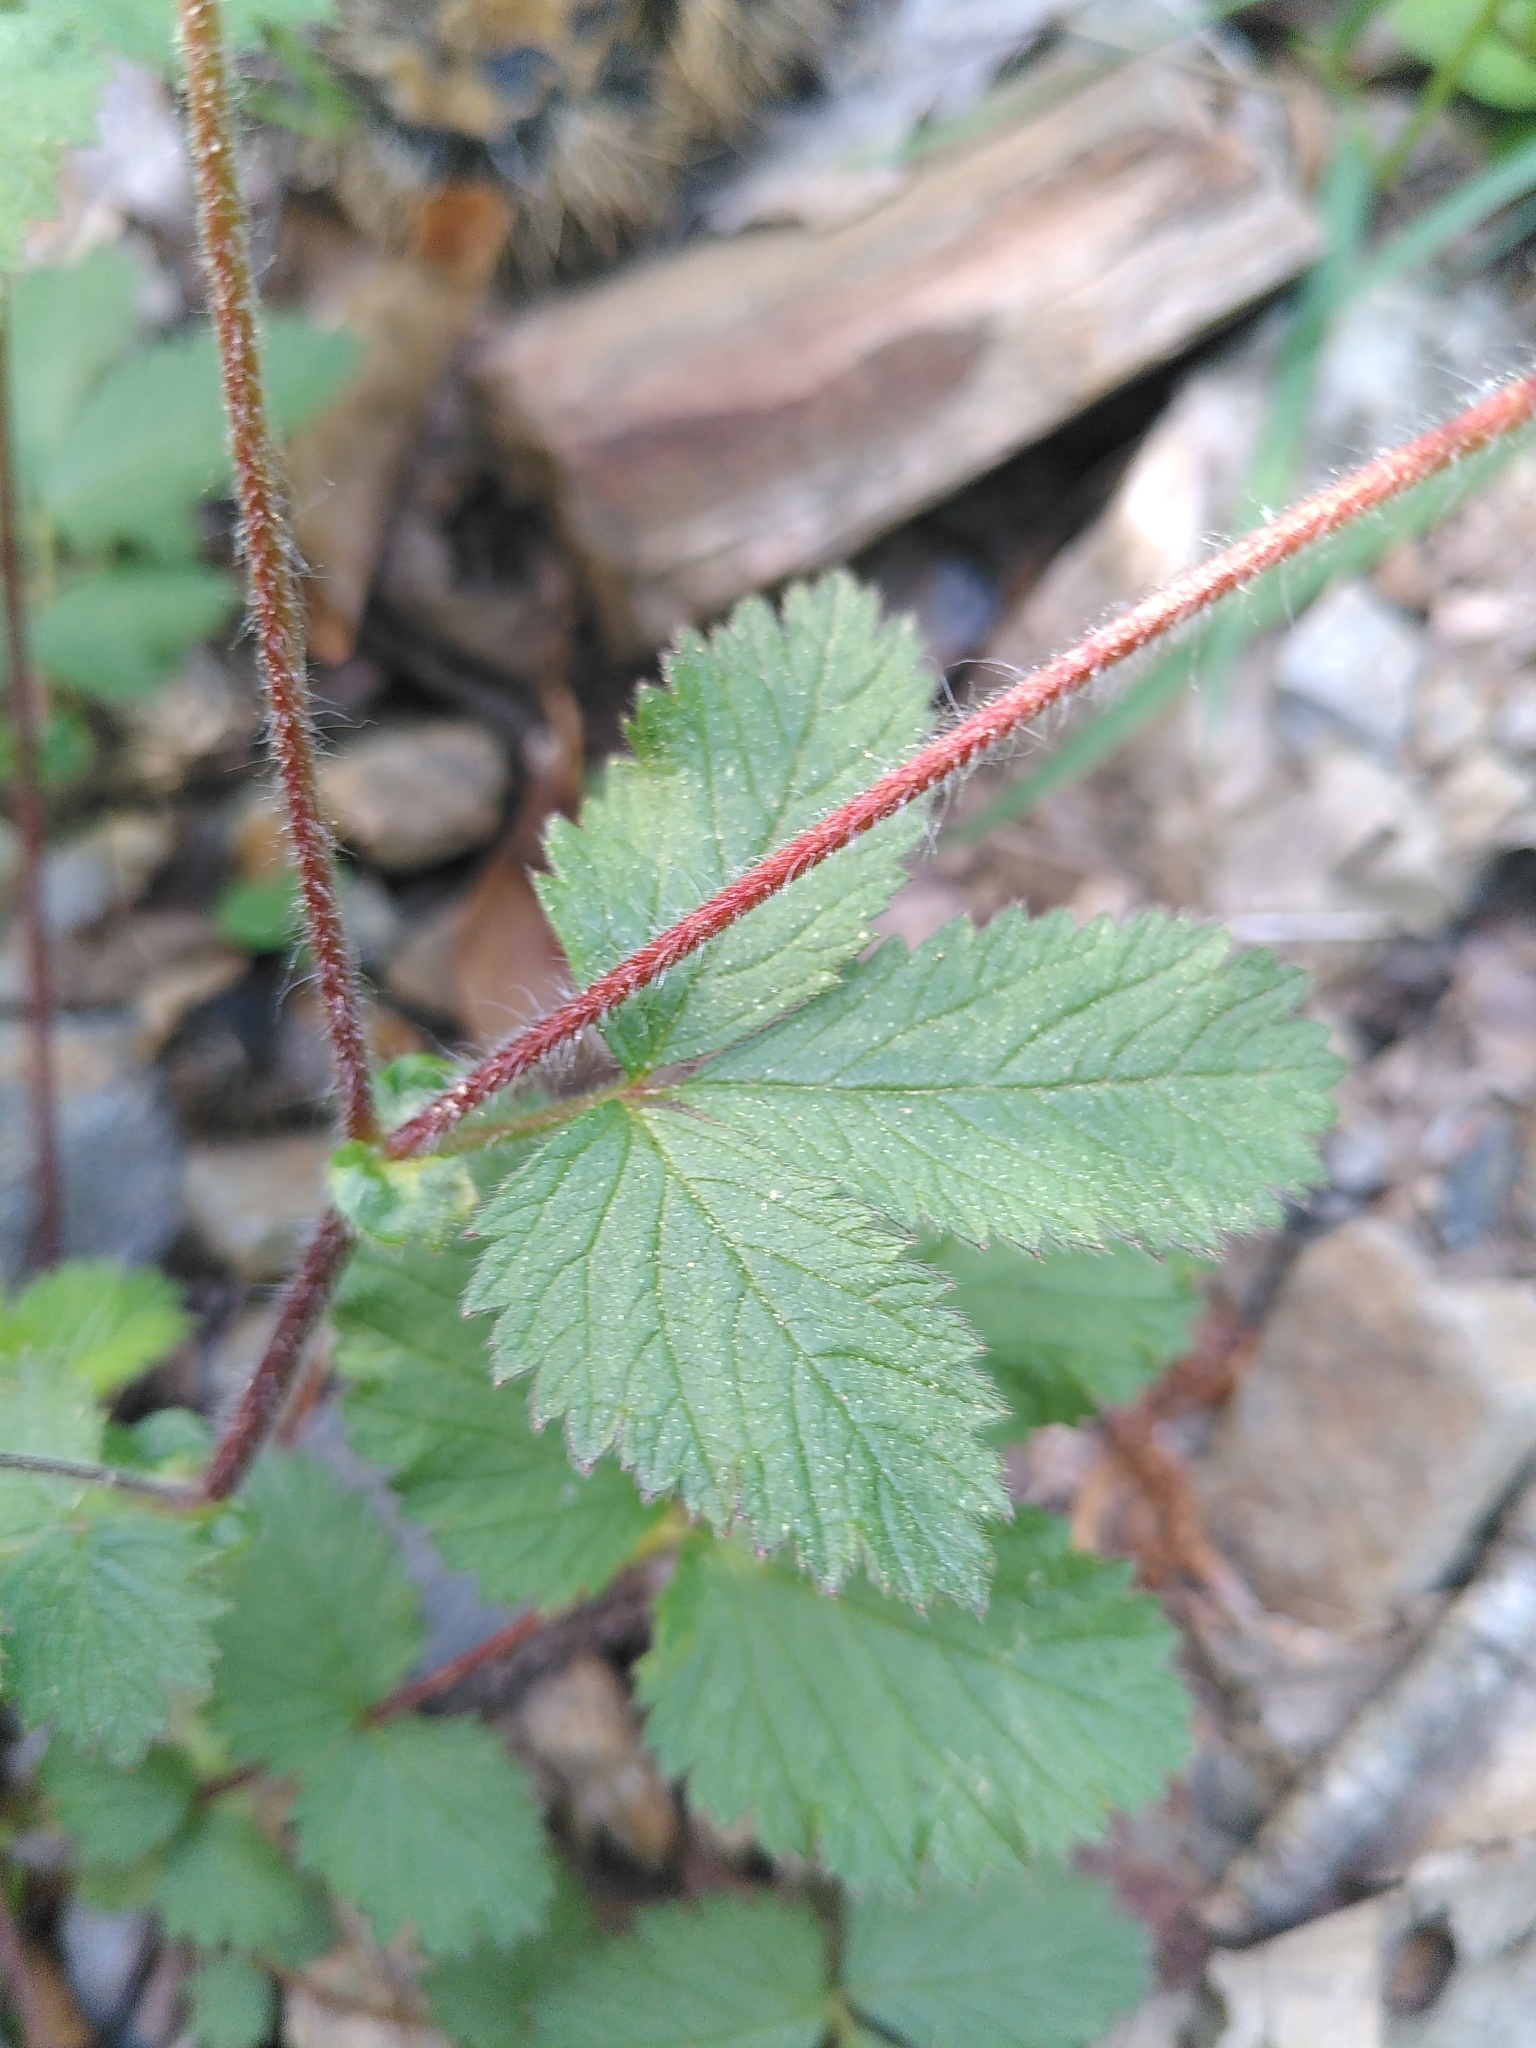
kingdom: Plantae
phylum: Tracheophyta
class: Magnoliopsida
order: Rosales
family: Rosaceae
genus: Drymocallis
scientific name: Drymocallis rupestris
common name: Rock cinquefoil
